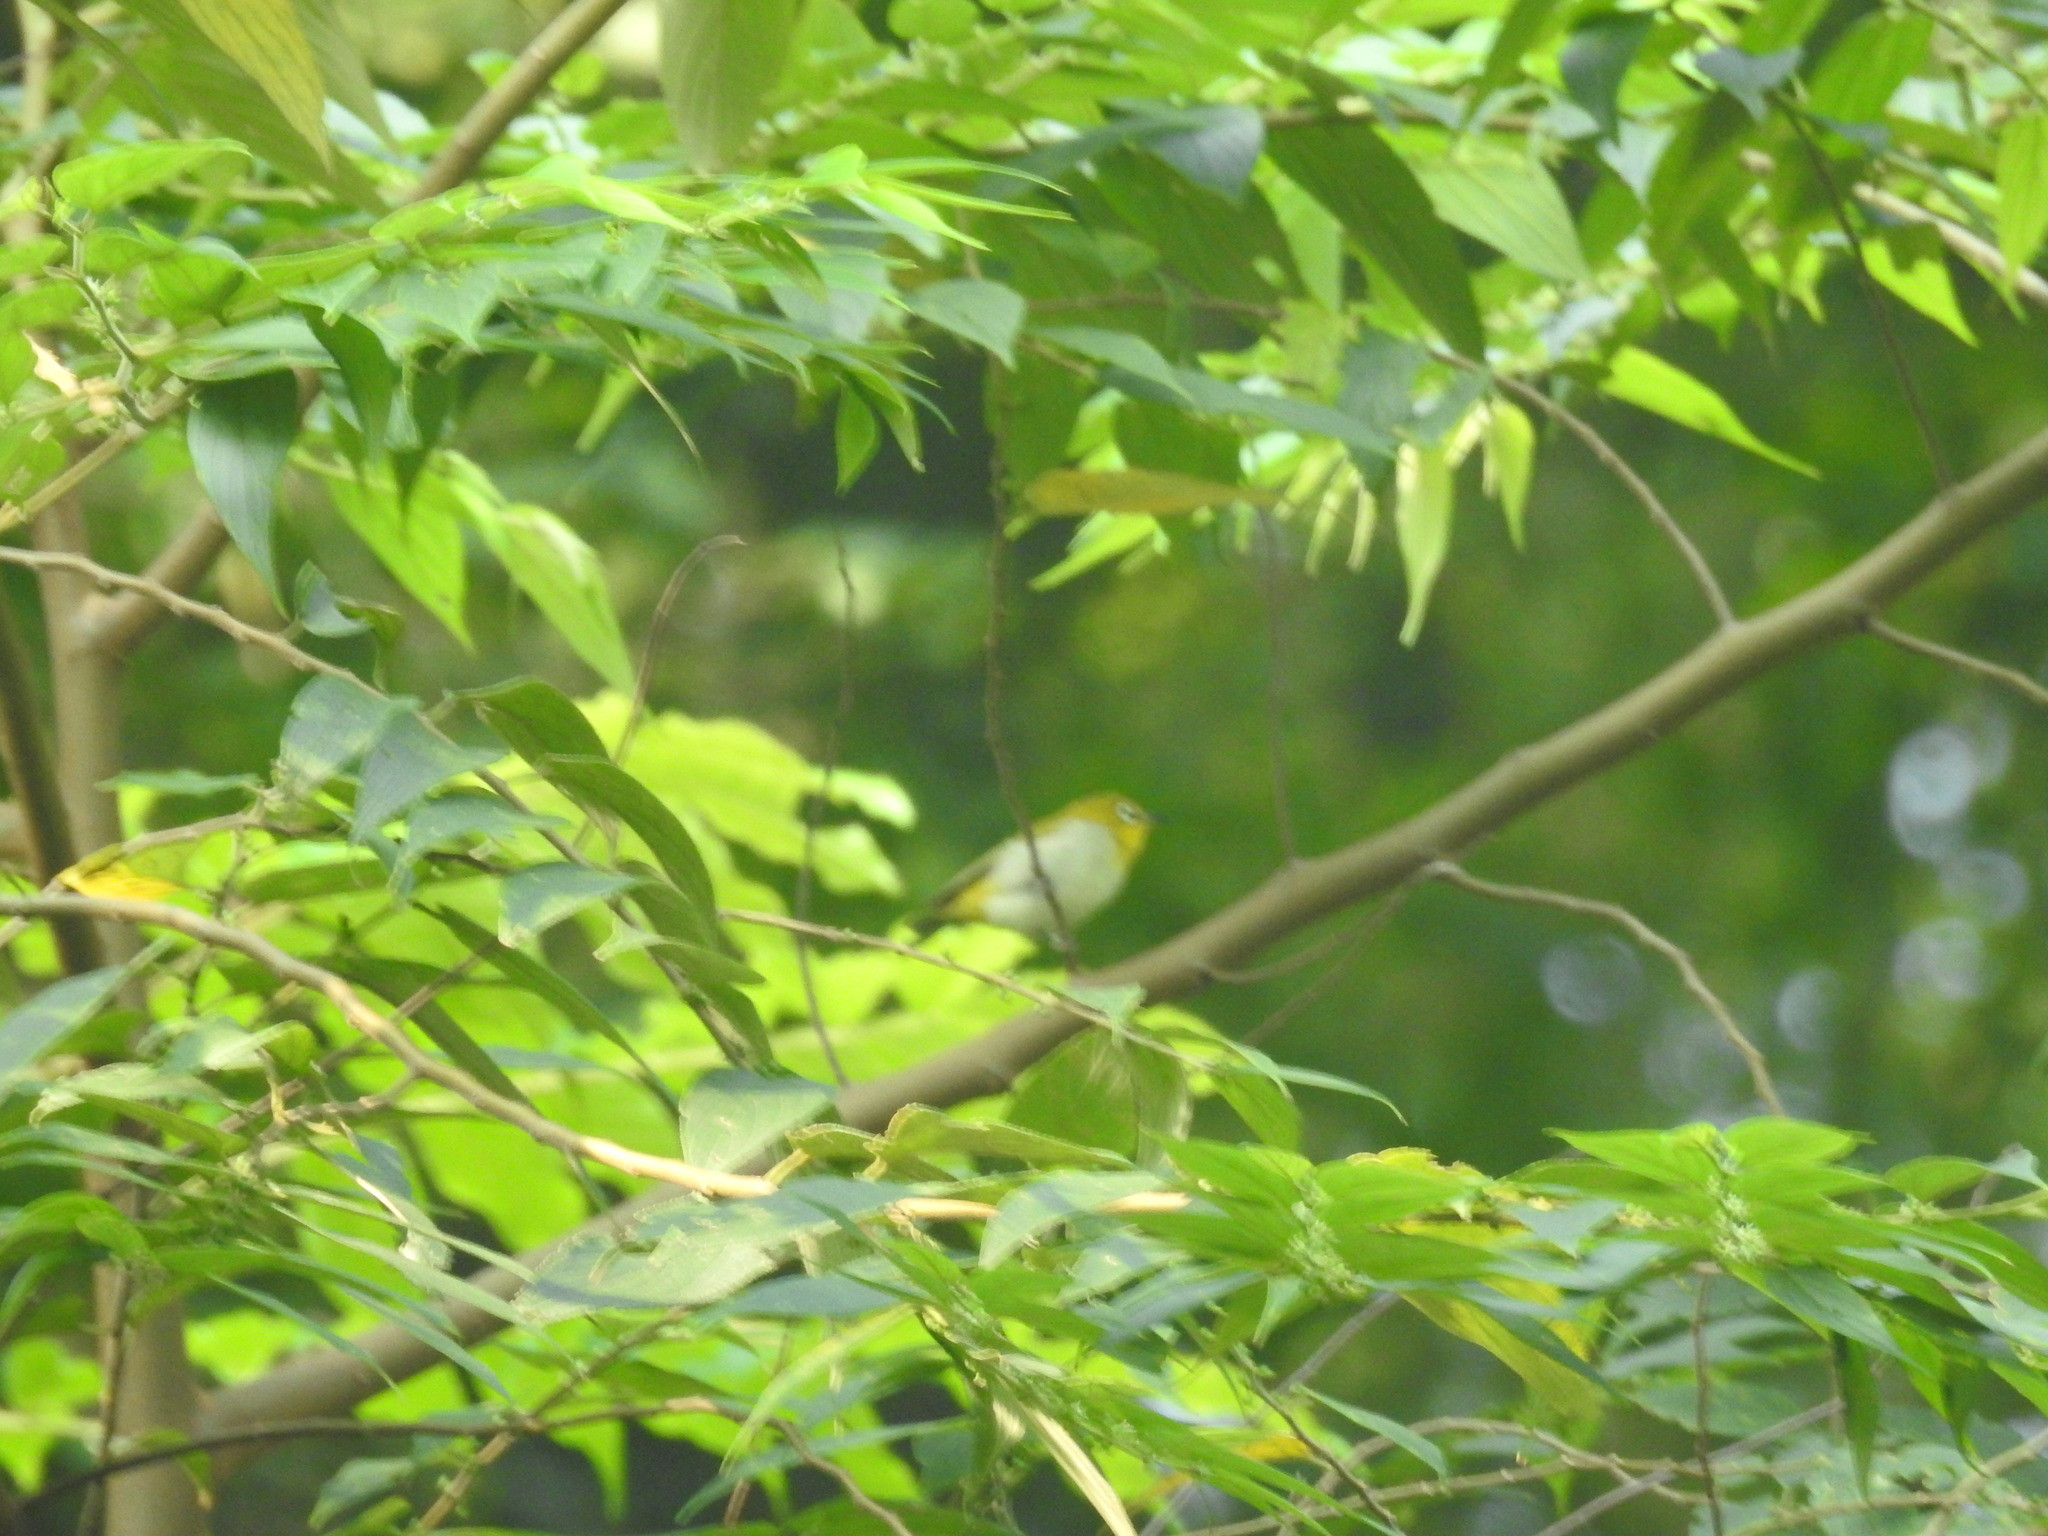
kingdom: Animalia
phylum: Chordata
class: Aves
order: Passeriformes
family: Zosteropidae
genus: Zosterops
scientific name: Zosterops palpebrosus
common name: Oriental white-eye
